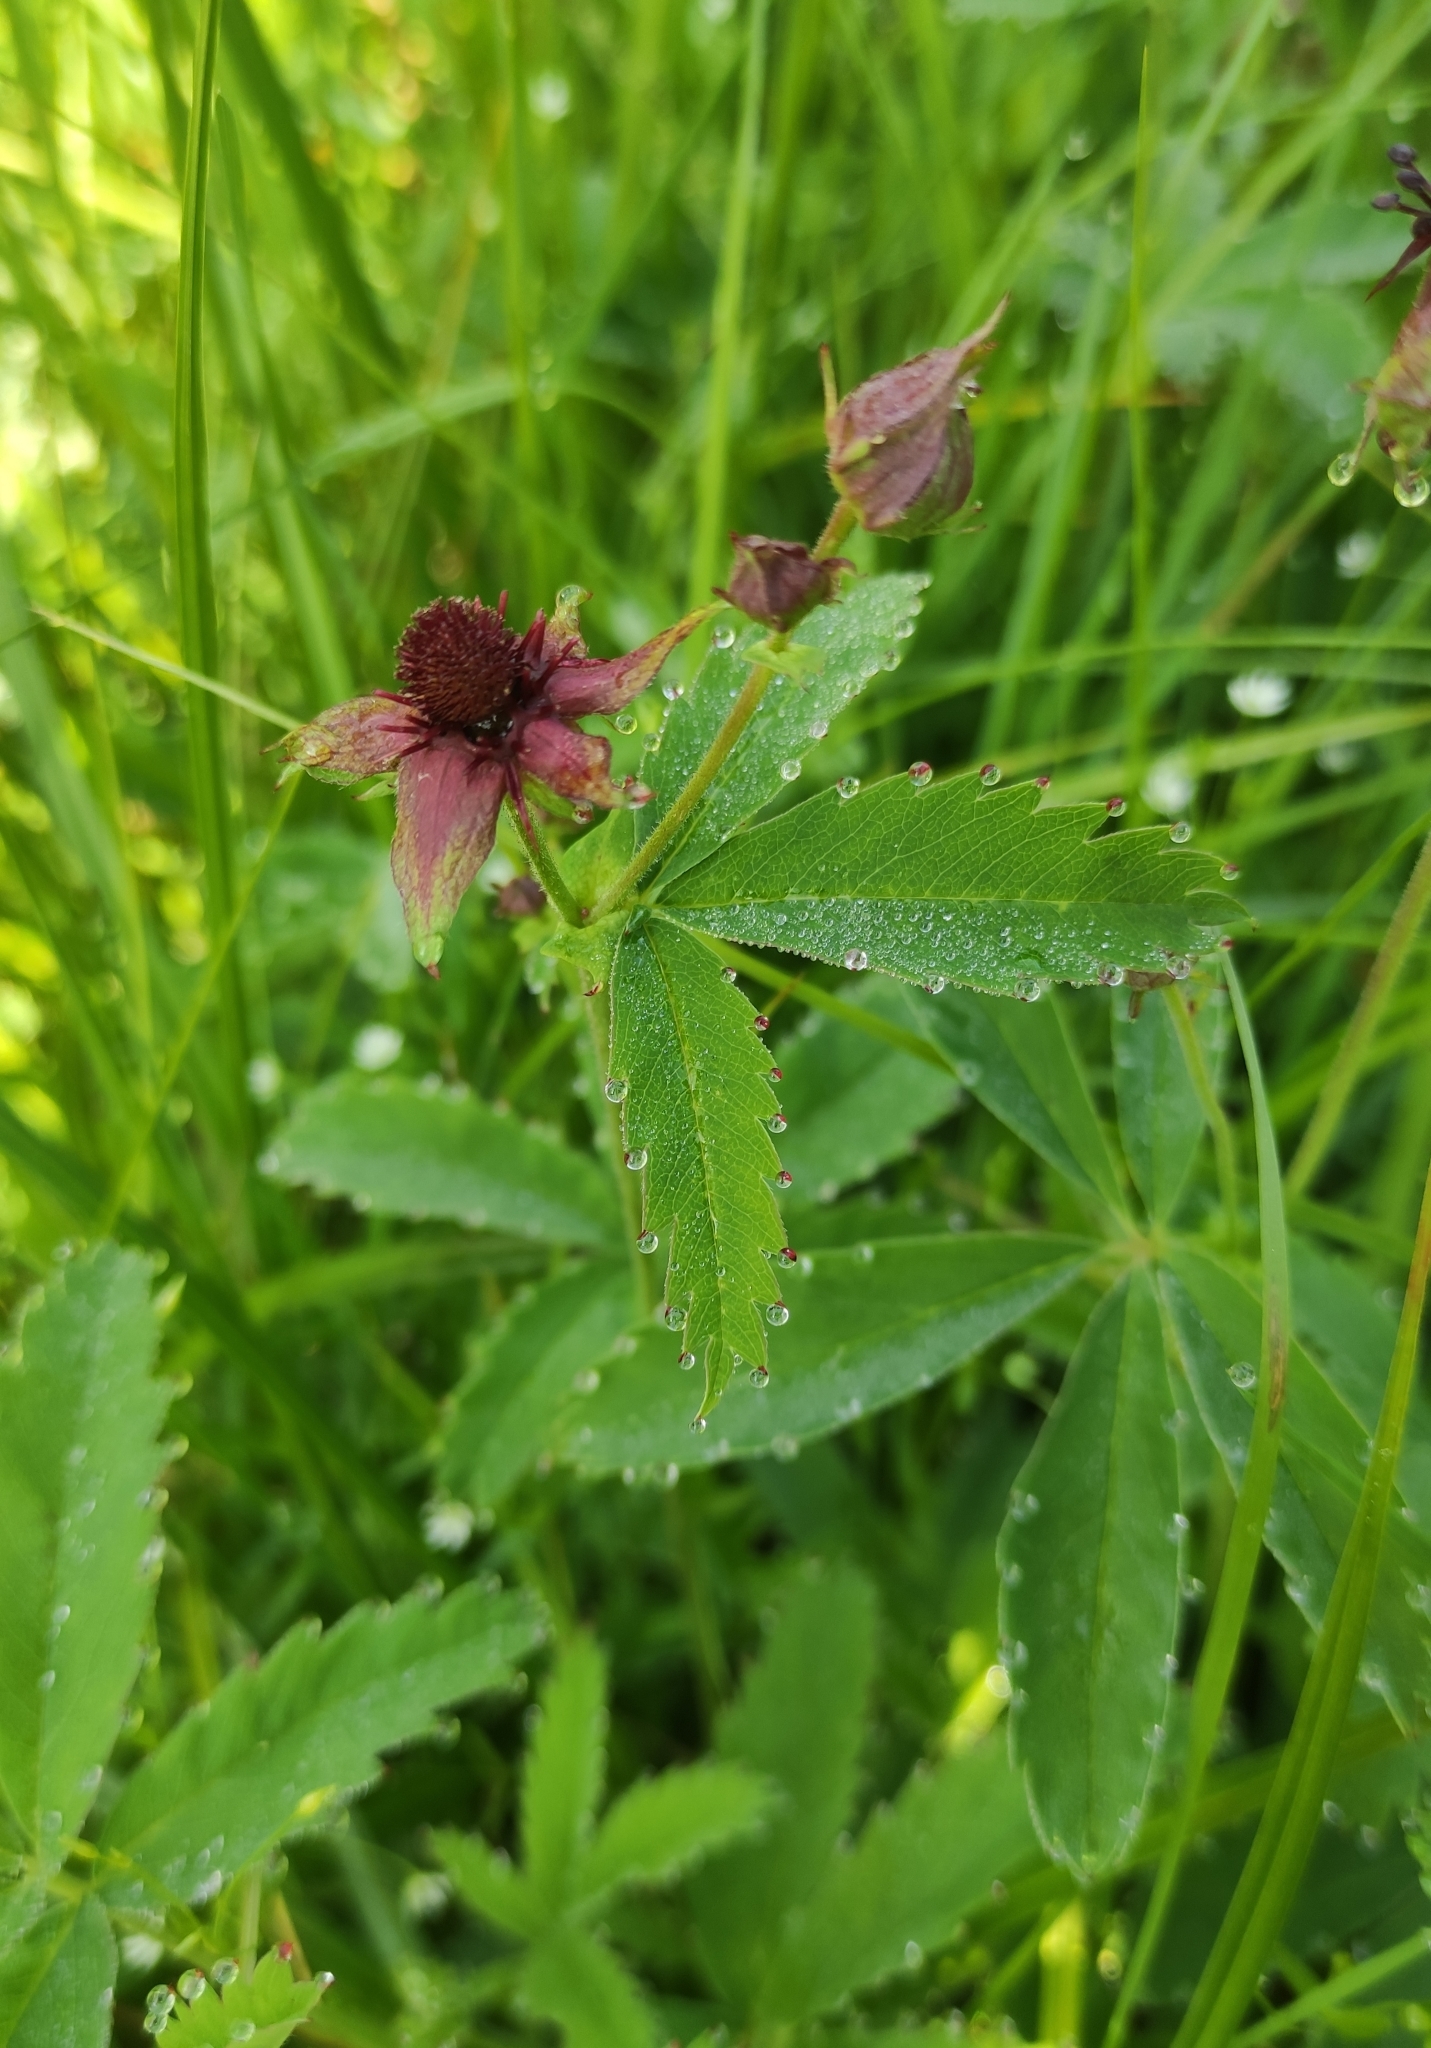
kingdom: Plantae
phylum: Tracheophyta
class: Magnoliopsida
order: Rosales
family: Rosaceae
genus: Comarum
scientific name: Comarum palustre
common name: Marsh cinquefoil
